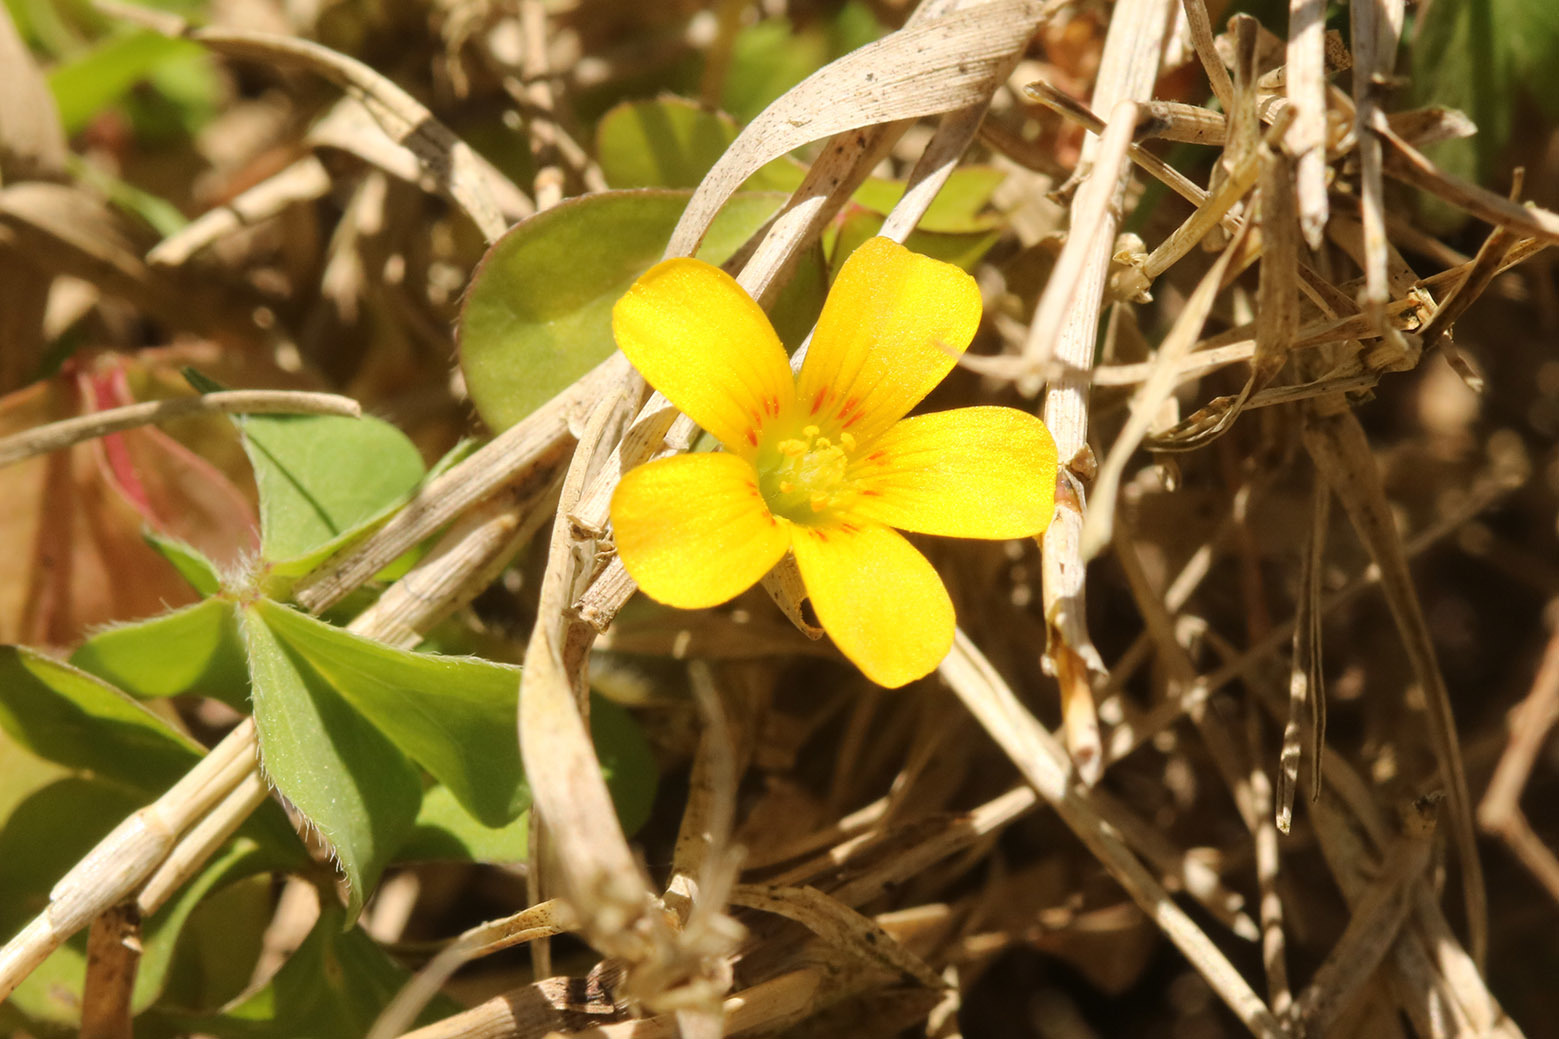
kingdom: Plantae
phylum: Tracheophyta
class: Magnoliopsida
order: Oxalidales
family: Oxalidaceae
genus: Oxalis
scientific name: Oxalis conorrhiza
